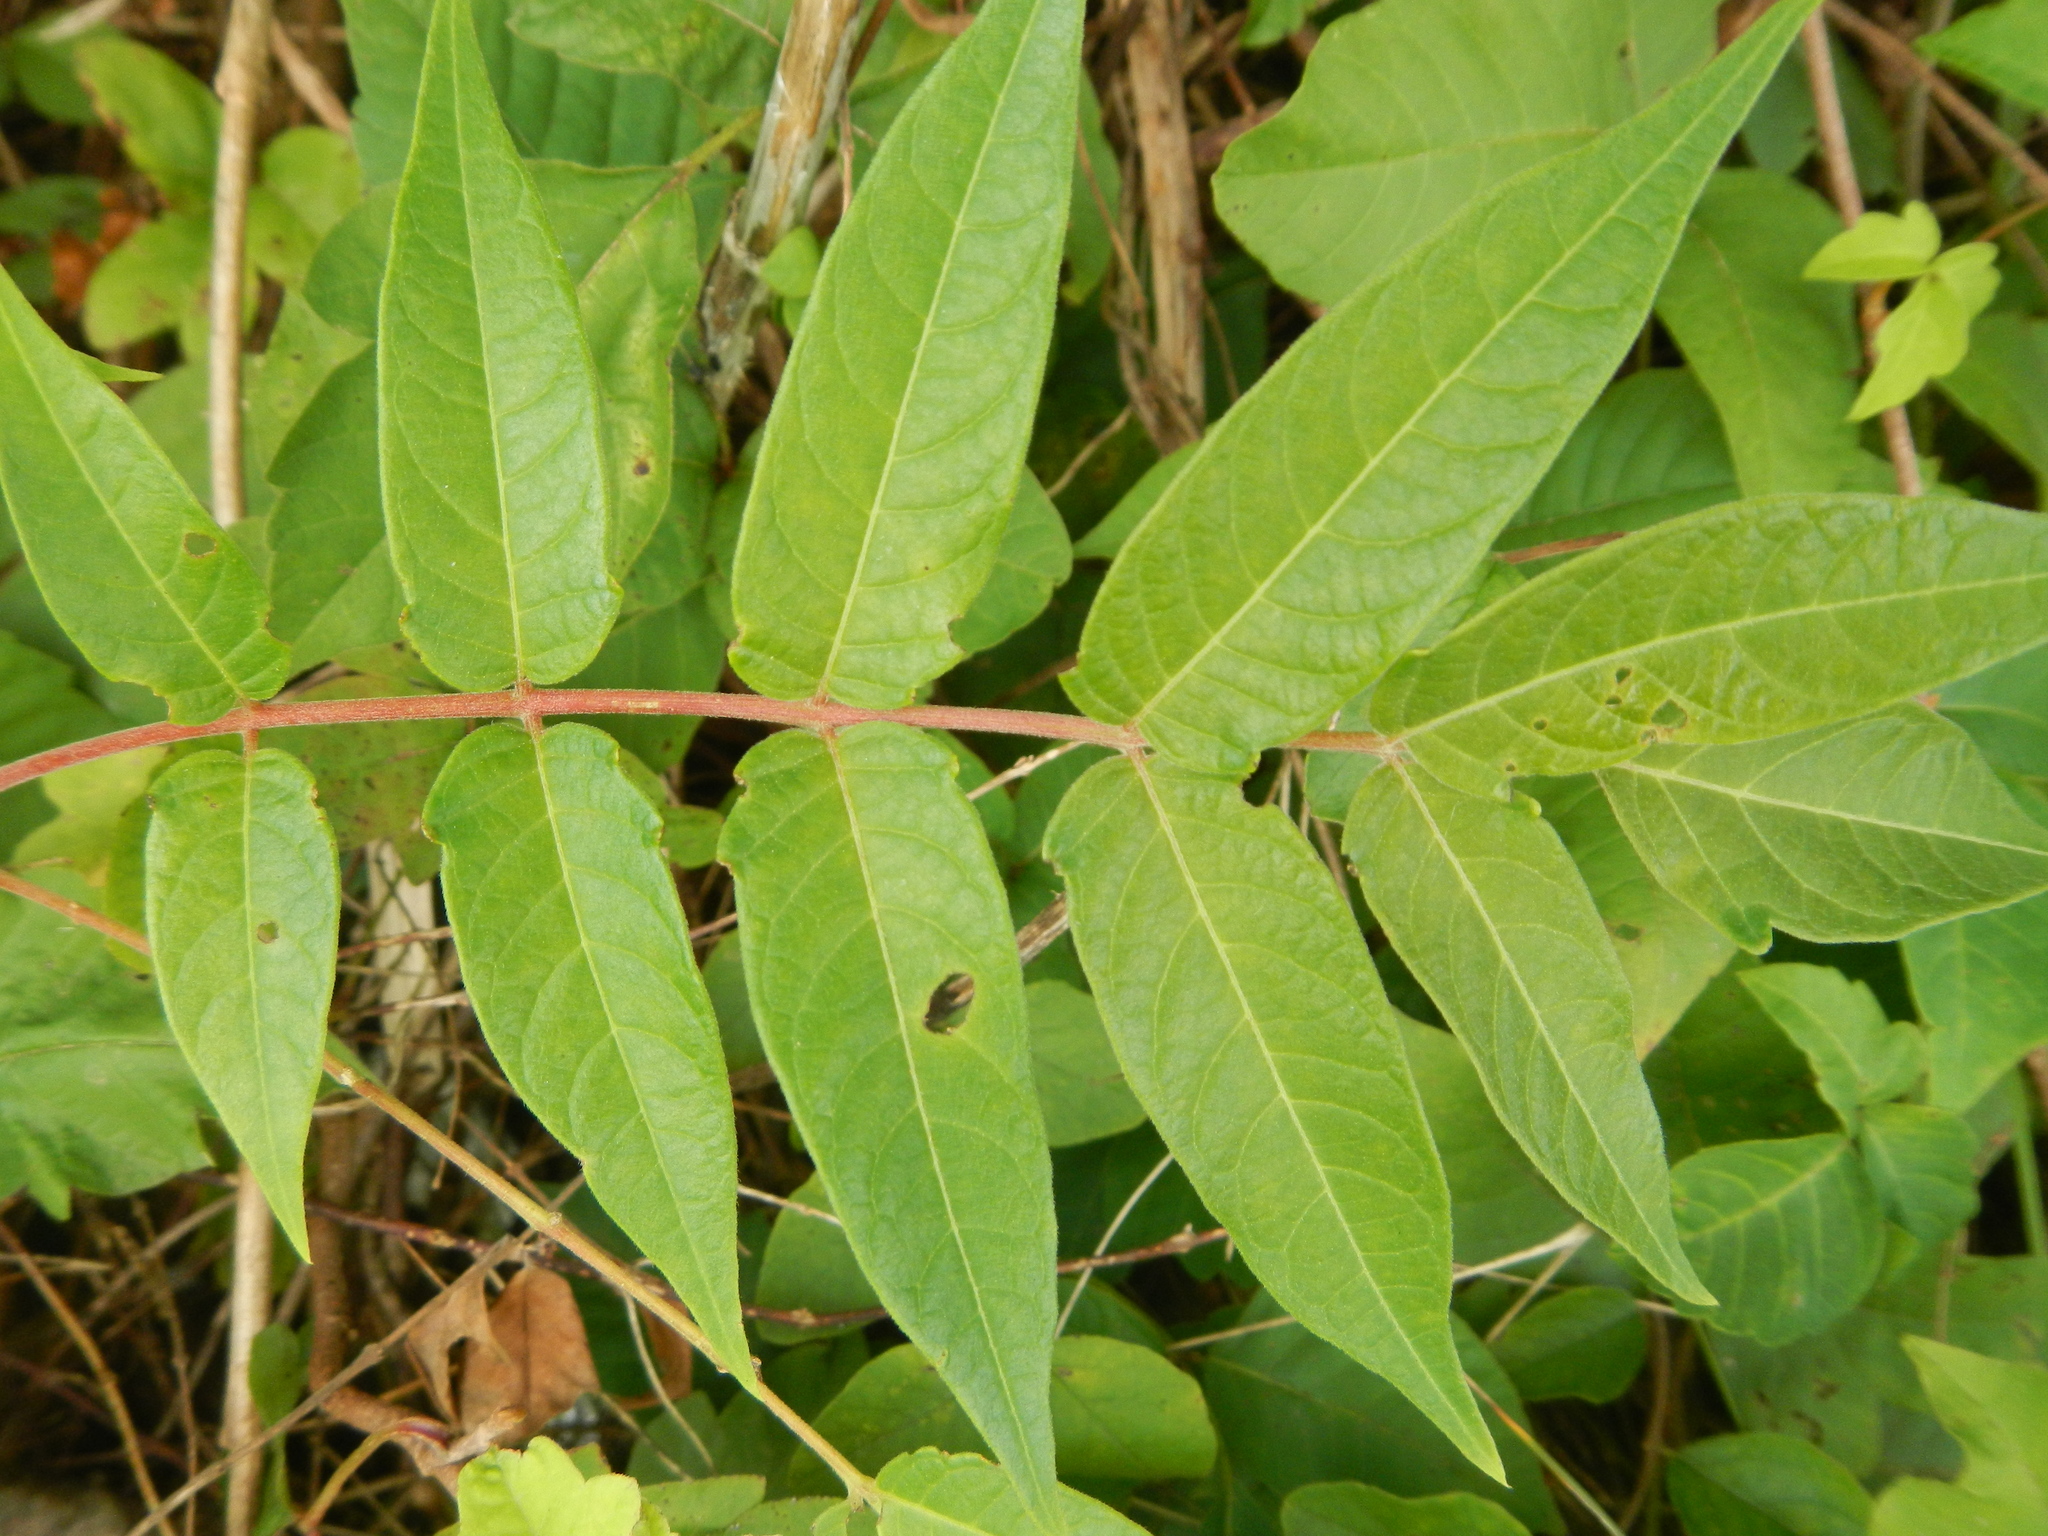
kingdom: Plantae
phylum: Tracheophyta
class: Magnoliopsida
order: Sapindales
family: Simaroubaceae
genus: Ailanthus
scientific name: Ailanthus altissima
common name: Tree-of-heaven
